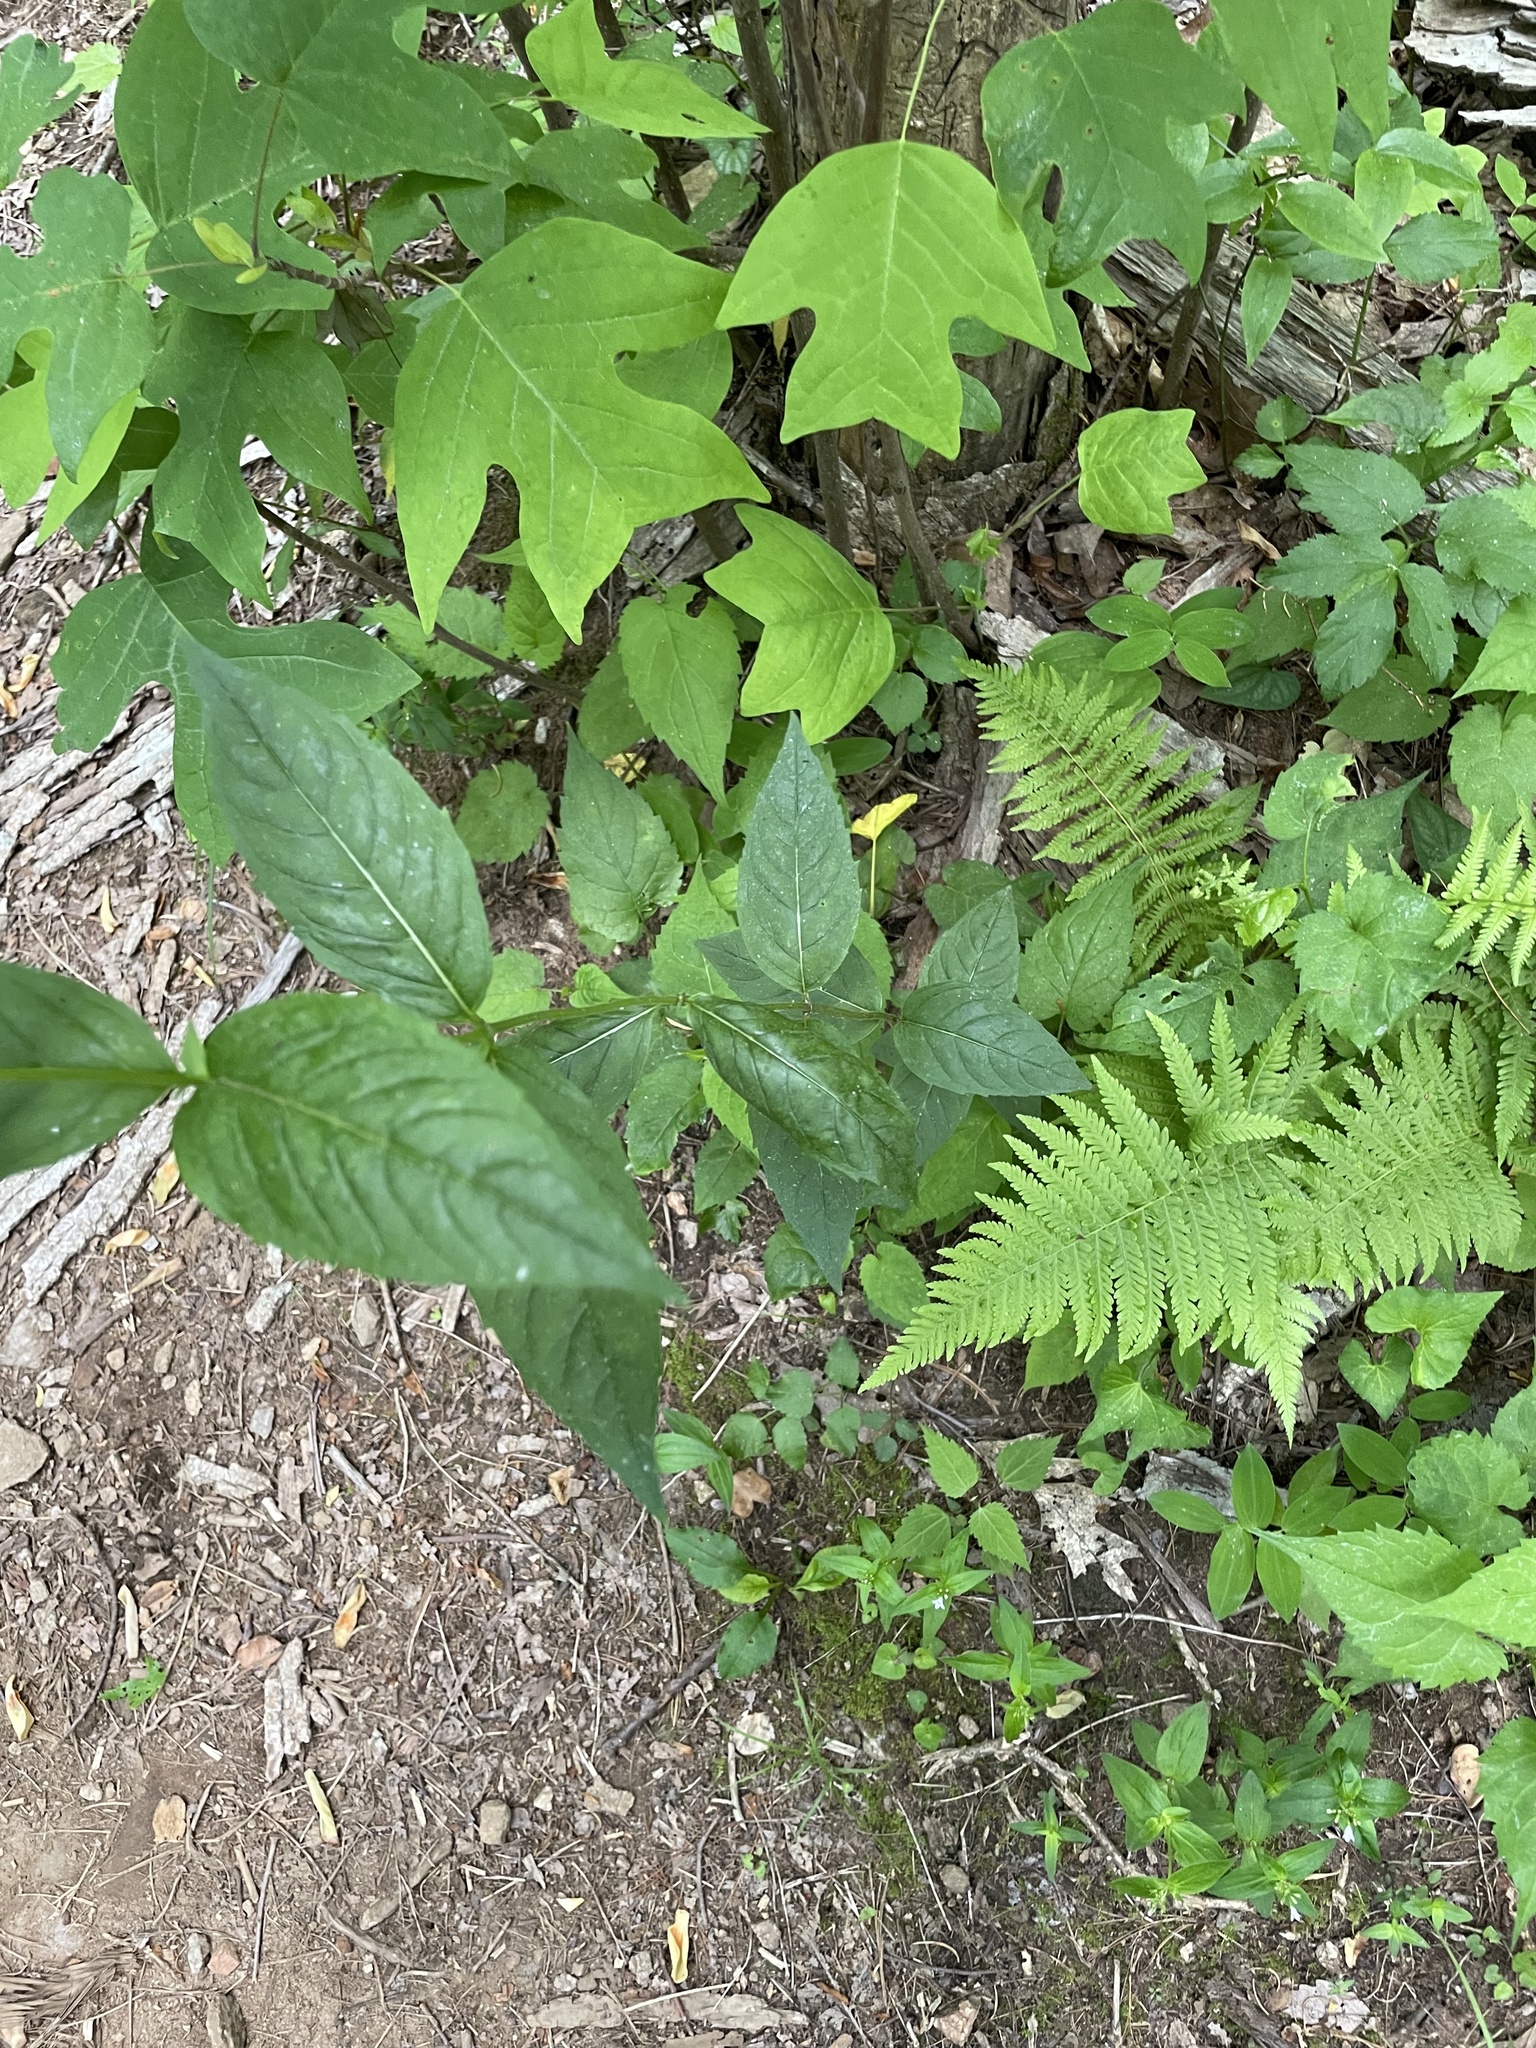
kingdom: Plantae
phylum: Tracheophyta
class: Magnoliopsida
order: Lamiales
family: Lamiaceae
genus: Monarda
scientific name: Monarda clinopodia
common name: Basil beebalm
